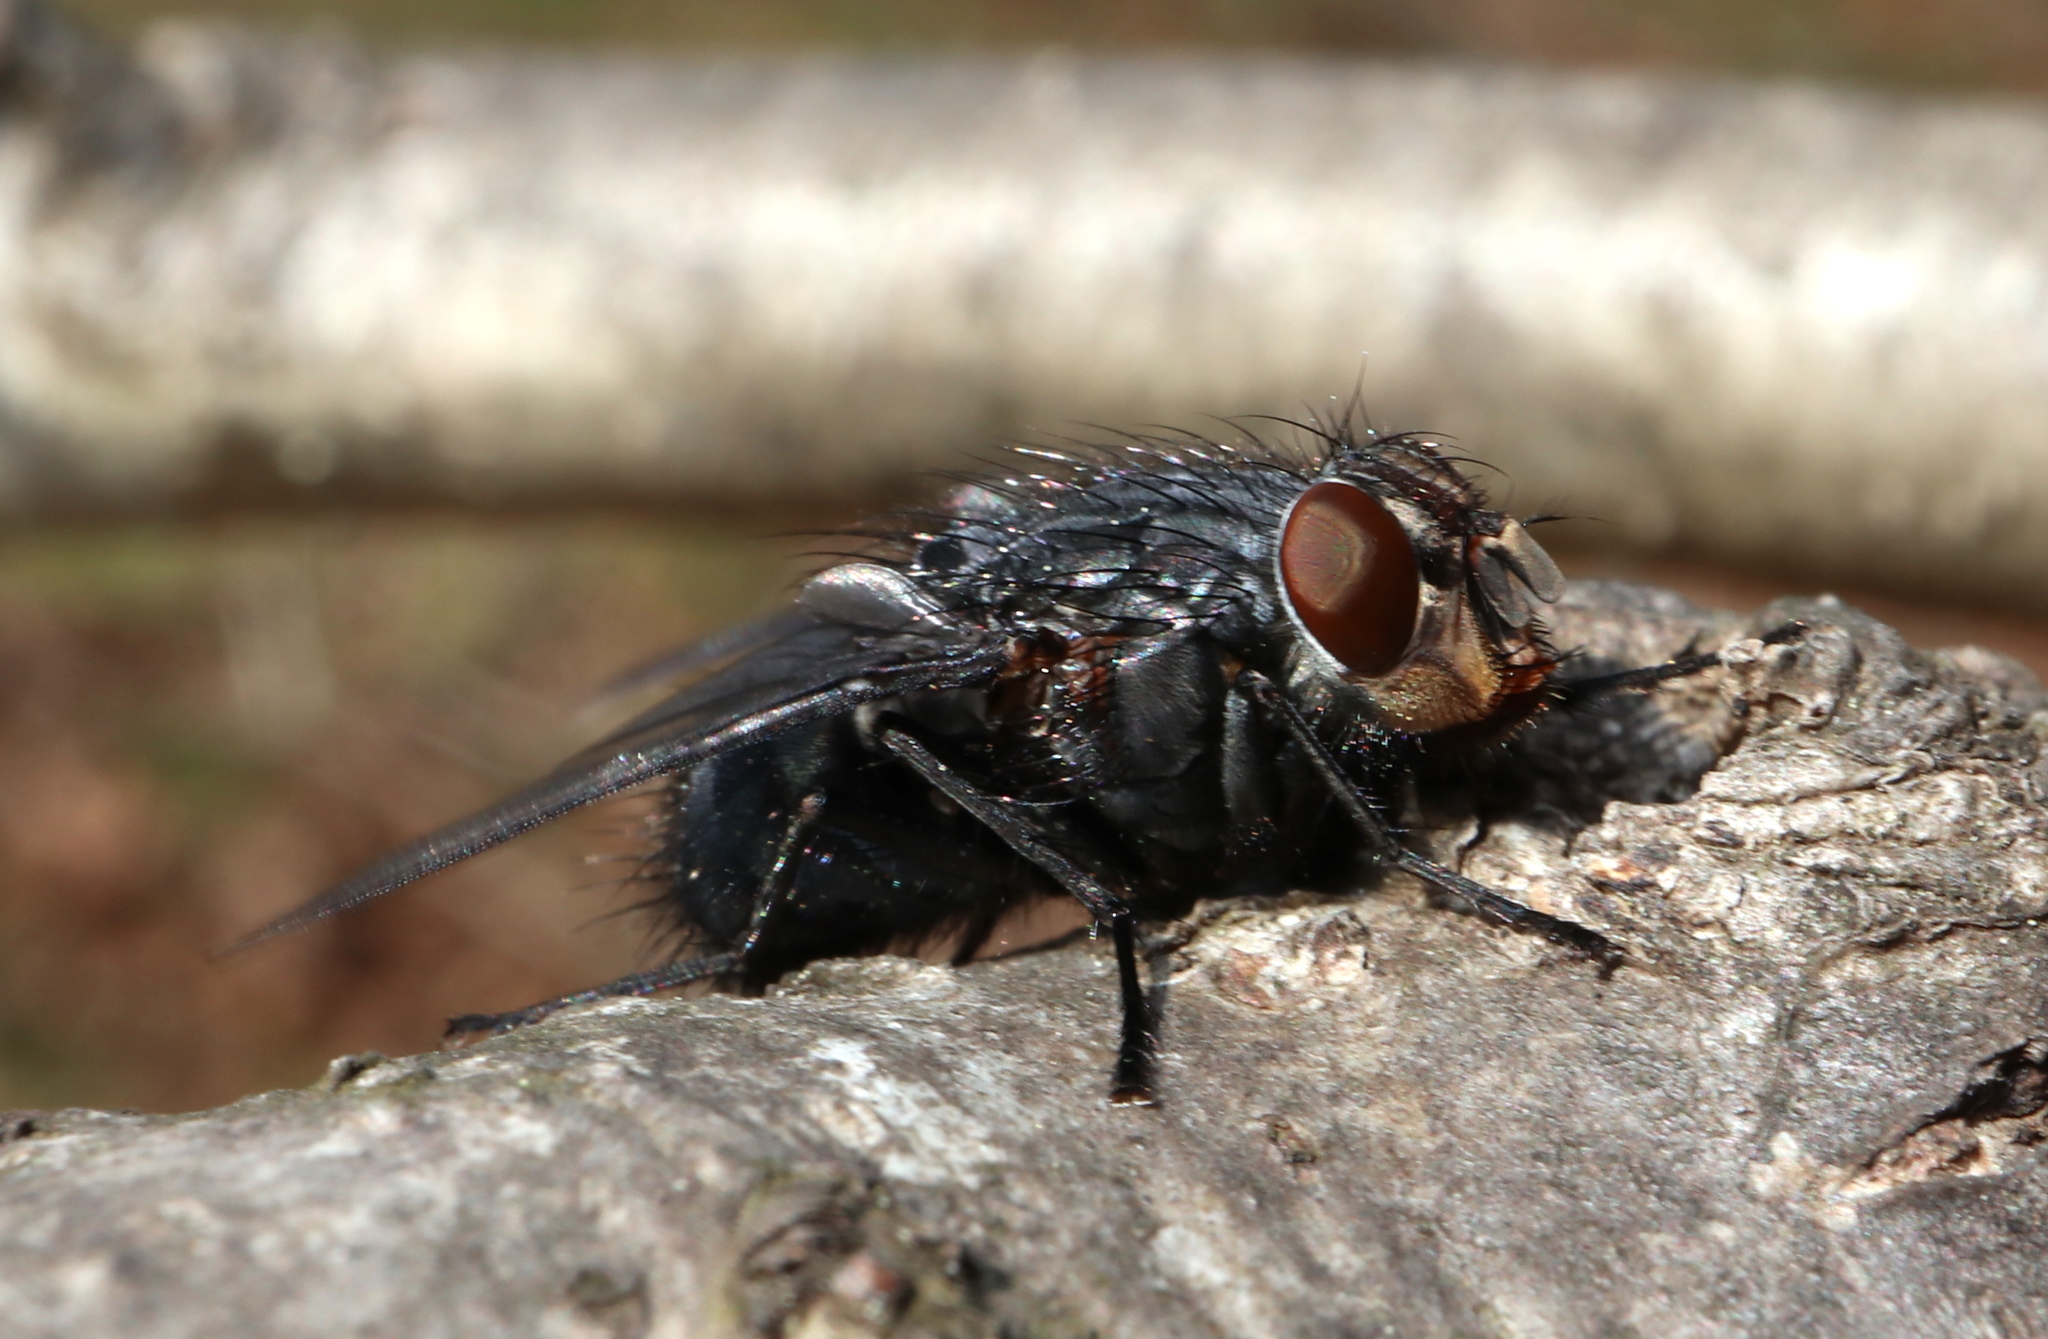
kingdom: Animalia
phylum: Arthropoda
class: Insecta
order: Diptera
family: Calliphoridae
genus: Calliphora
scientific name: Calliphora vicina
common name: Common blow flie
